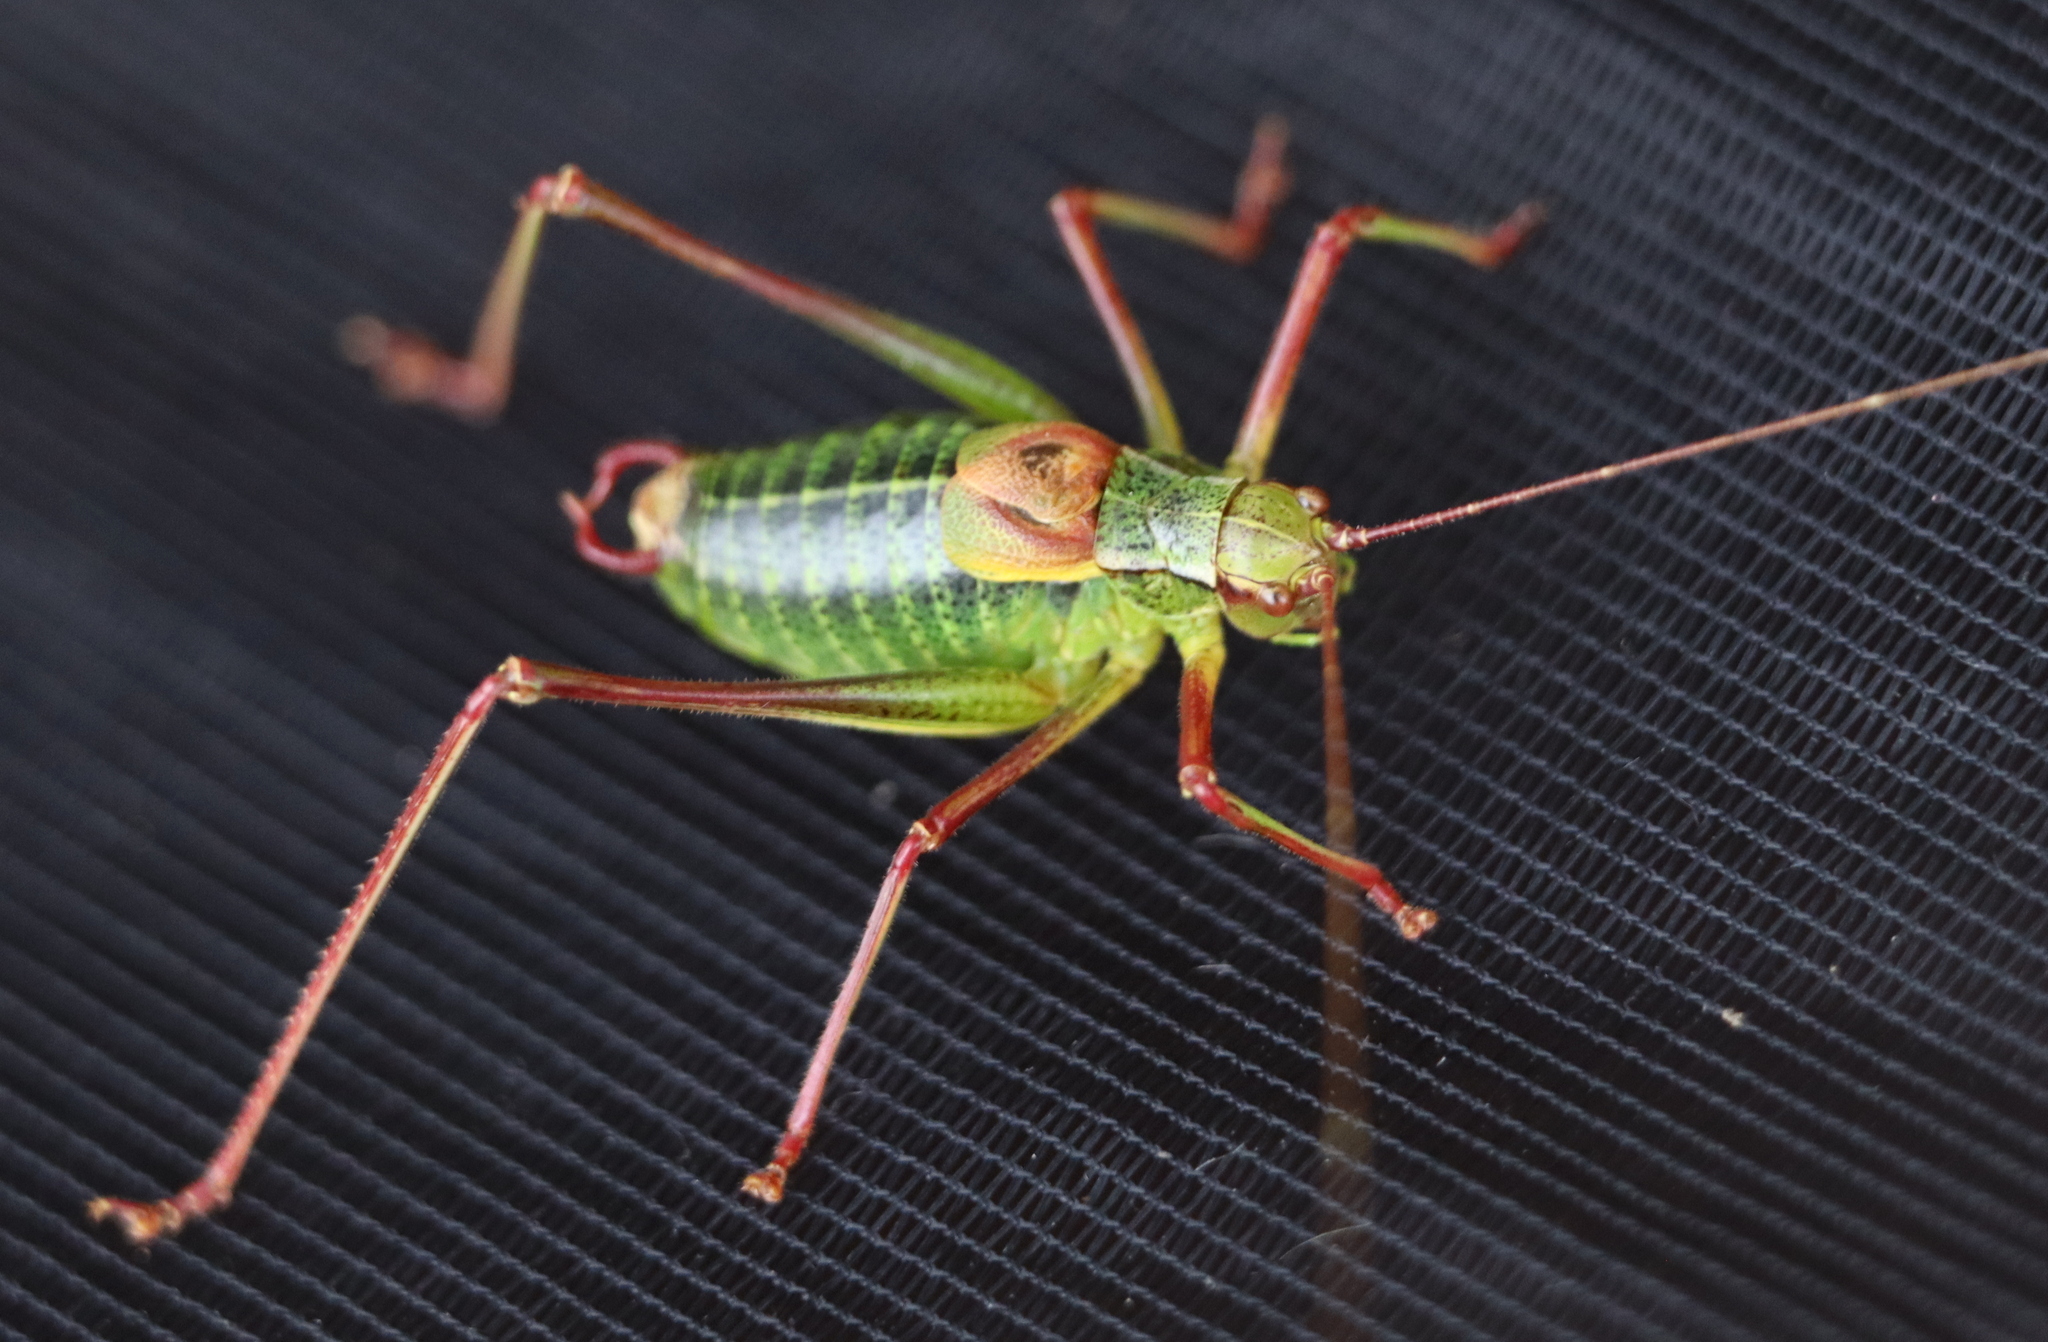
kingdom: Animalia
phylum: Arthropoda
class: Insecta
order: Orthoptera
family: Tettigoniidae
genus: Barbitistes
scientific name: Barbitistes constrictus
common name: Eastern saw-tailed bush cricket
